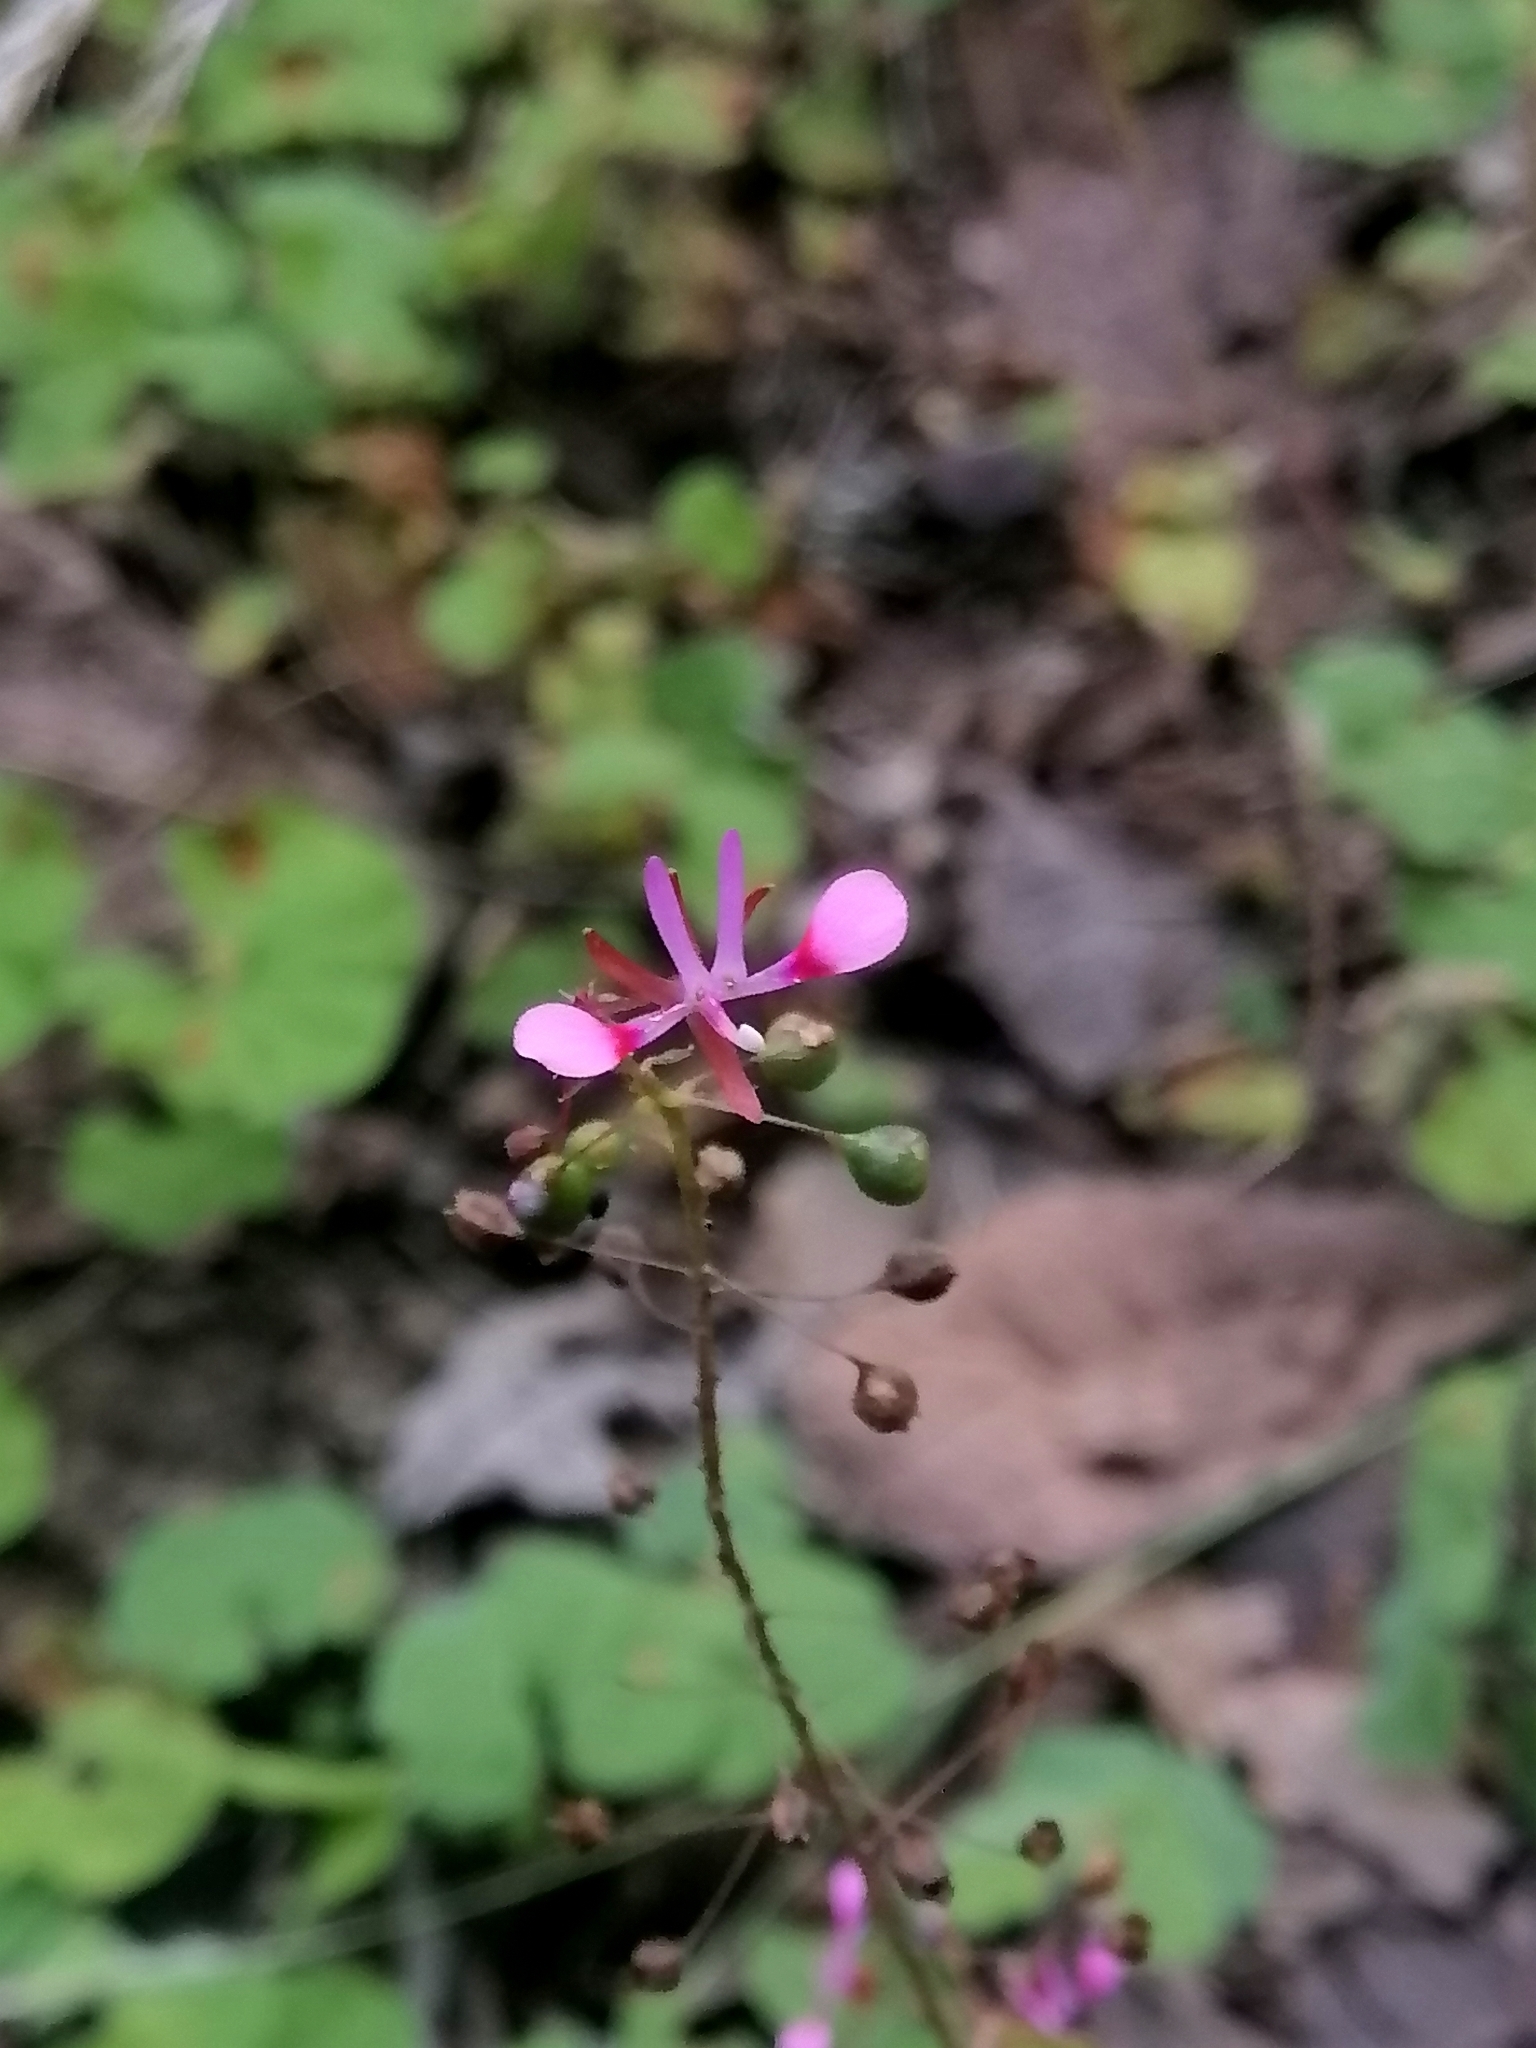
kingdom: Plantae
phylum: Tracheophyta
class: Magnoliopsida
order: Myrtales
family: Onagraceae
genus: Lopezia
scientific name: Lopezia racemosa
